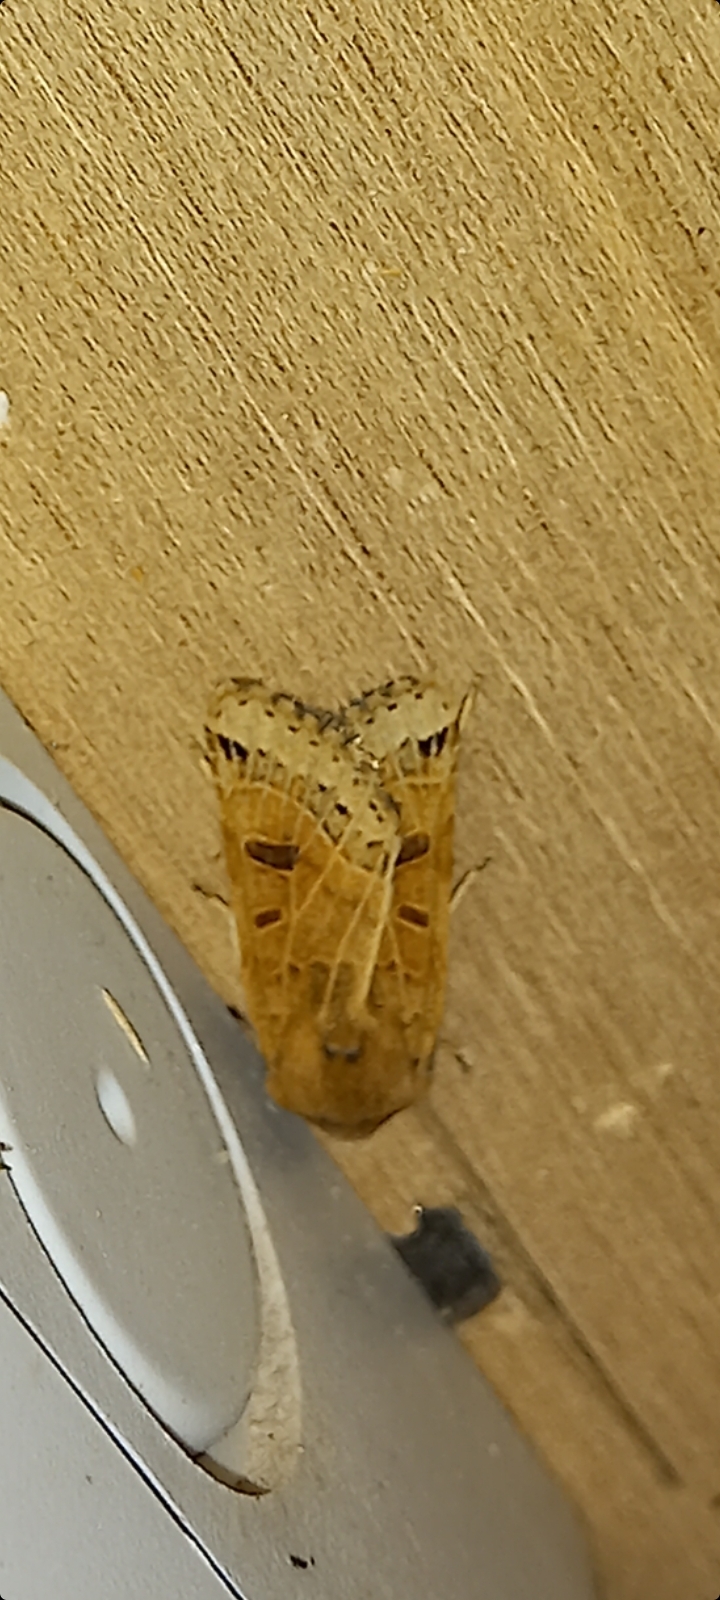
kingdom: Animalia
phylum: Arthropoda
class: Insecta
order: Lepidoptera
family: Noctuidae
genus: Agrochola
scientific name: Agrochola lunosa
